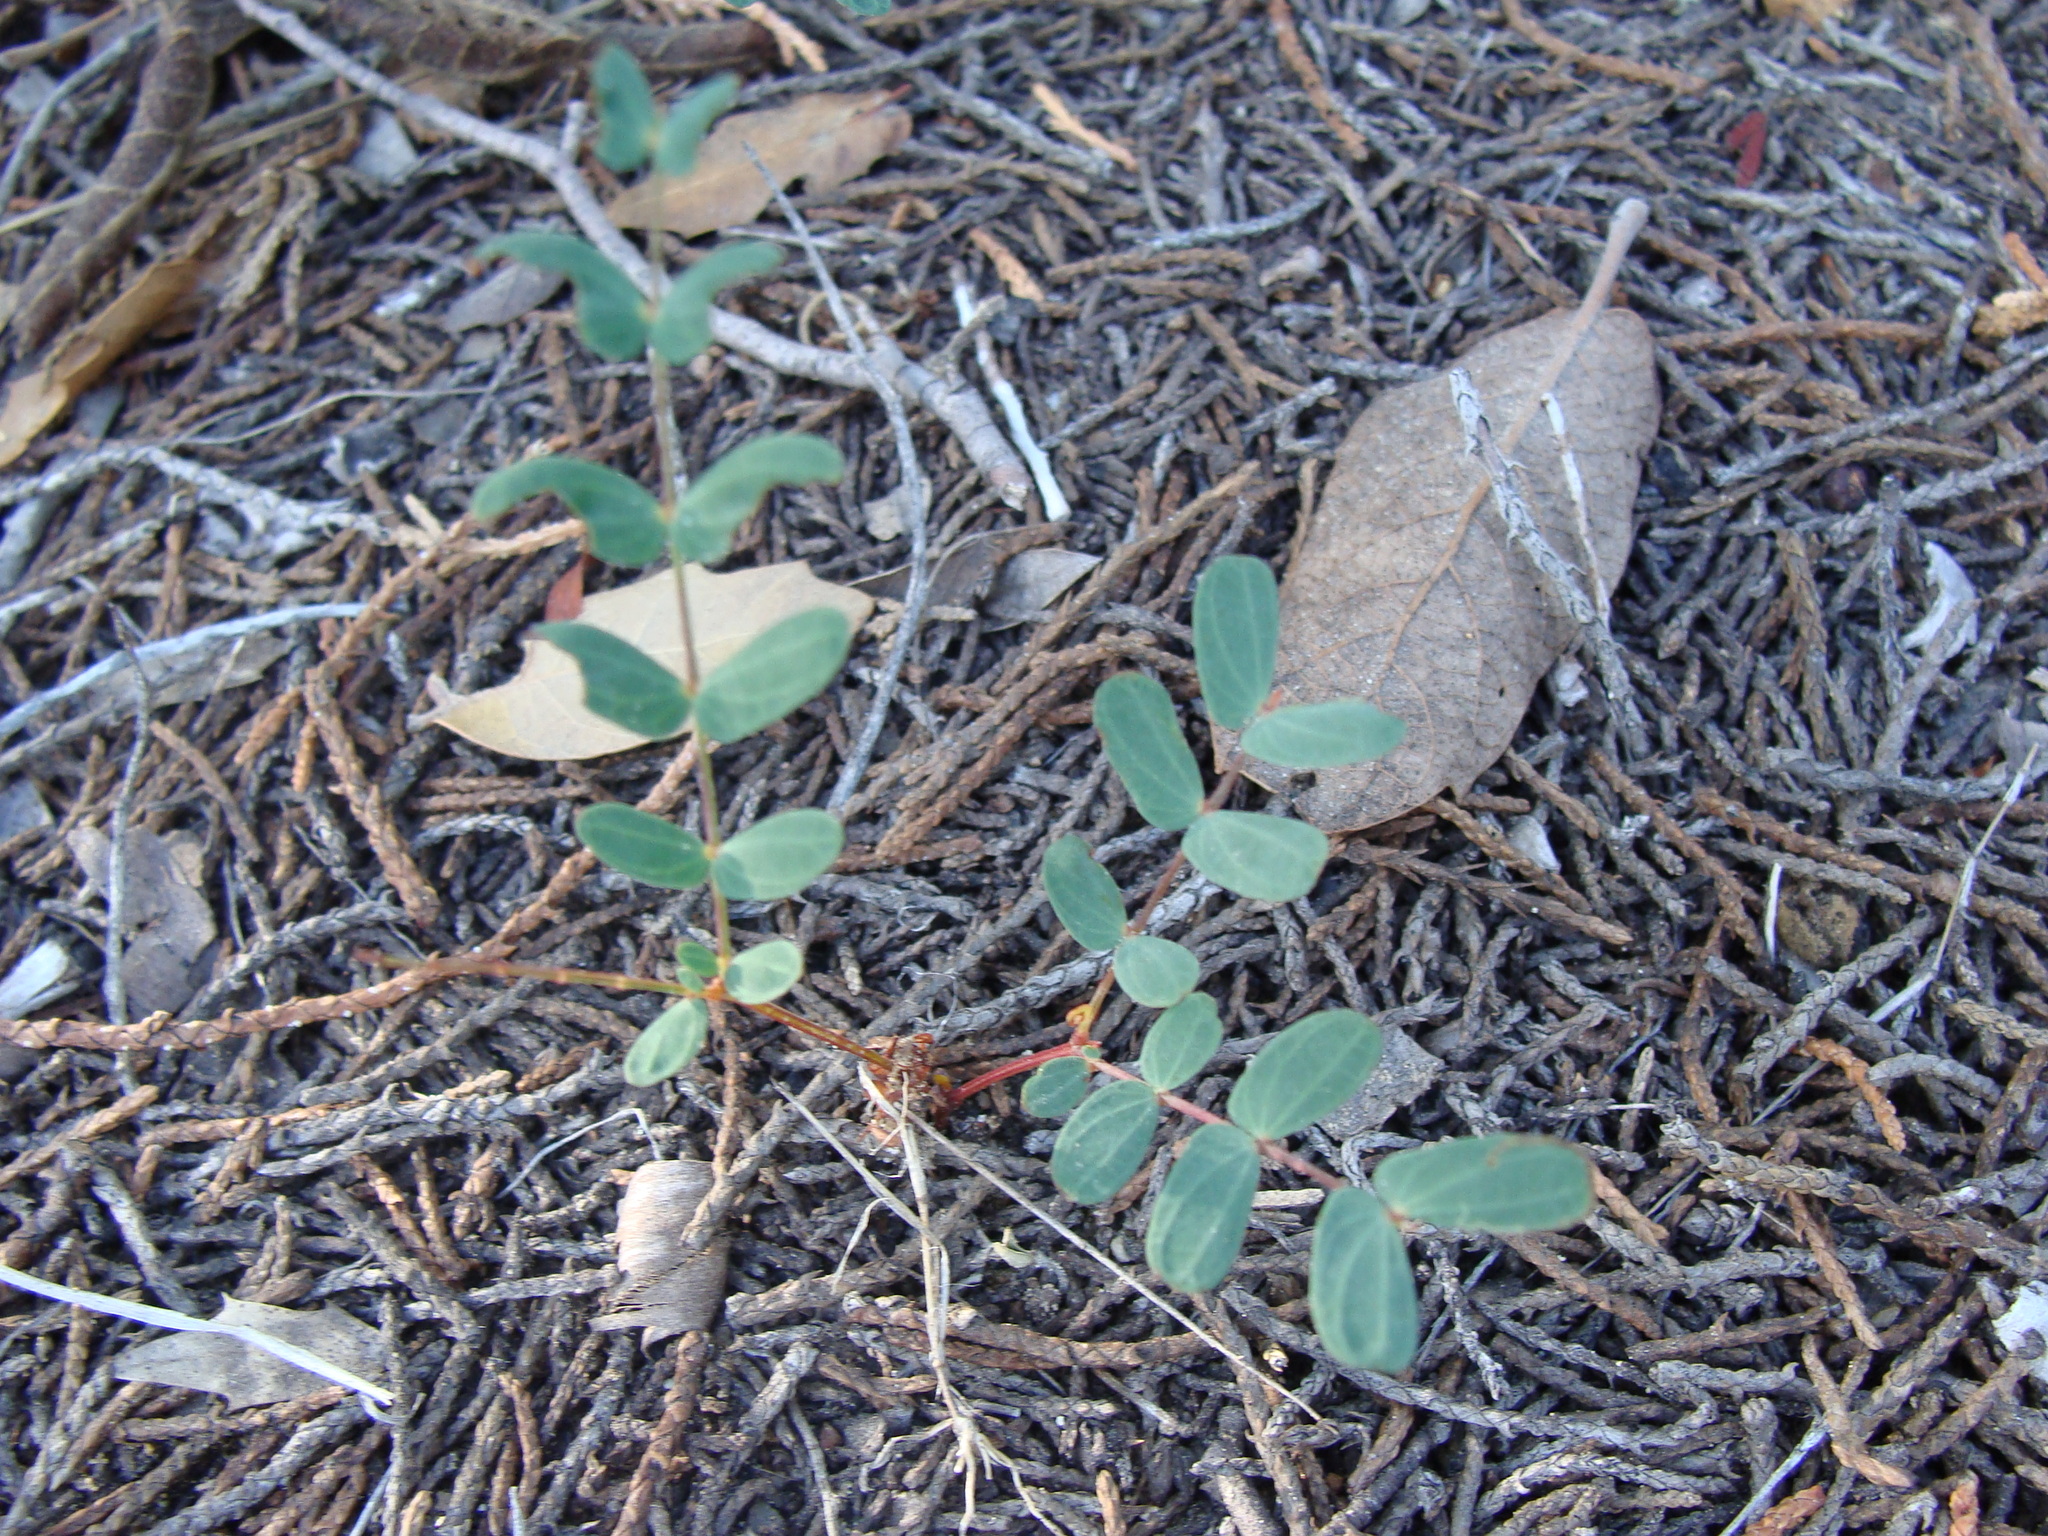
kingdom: Plantae
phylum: Tracheophyta
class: Magnoliopsida
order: Fabales
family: Fabaceae
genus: Calliandra
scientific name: Calliandra humilis
